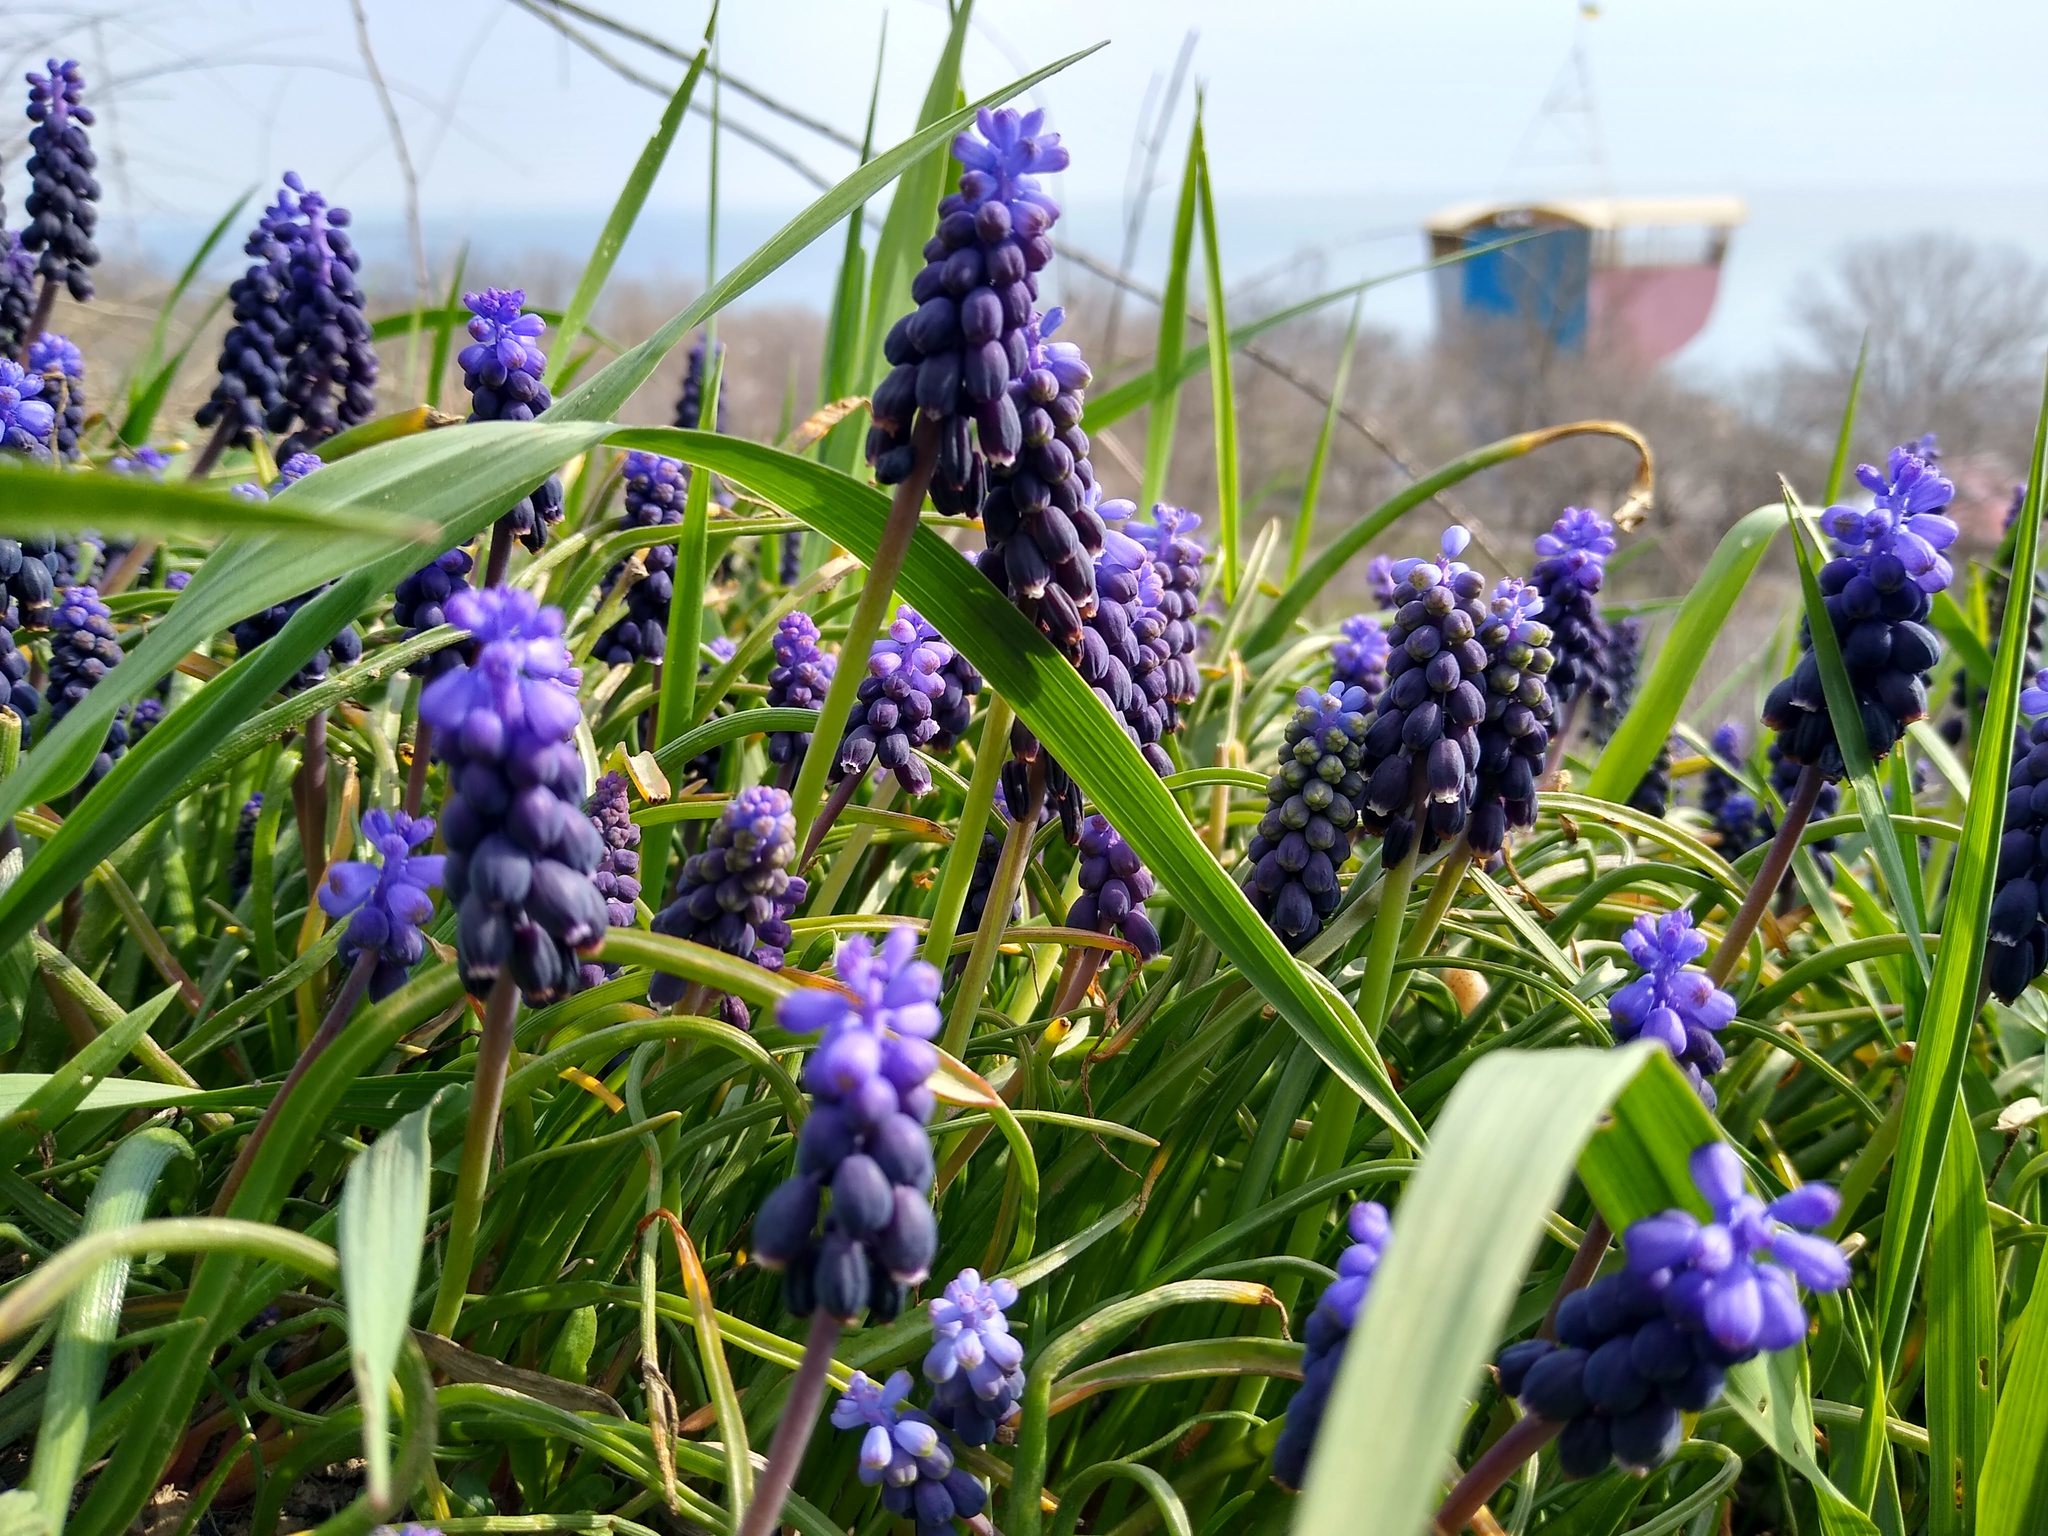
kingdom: Plantae
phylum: Tracheophyta
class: Liliopsida
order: Asparagales
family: Asparagaceae
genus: Muscari
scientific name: Muscari neglectum
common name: Grape-hyacinth
